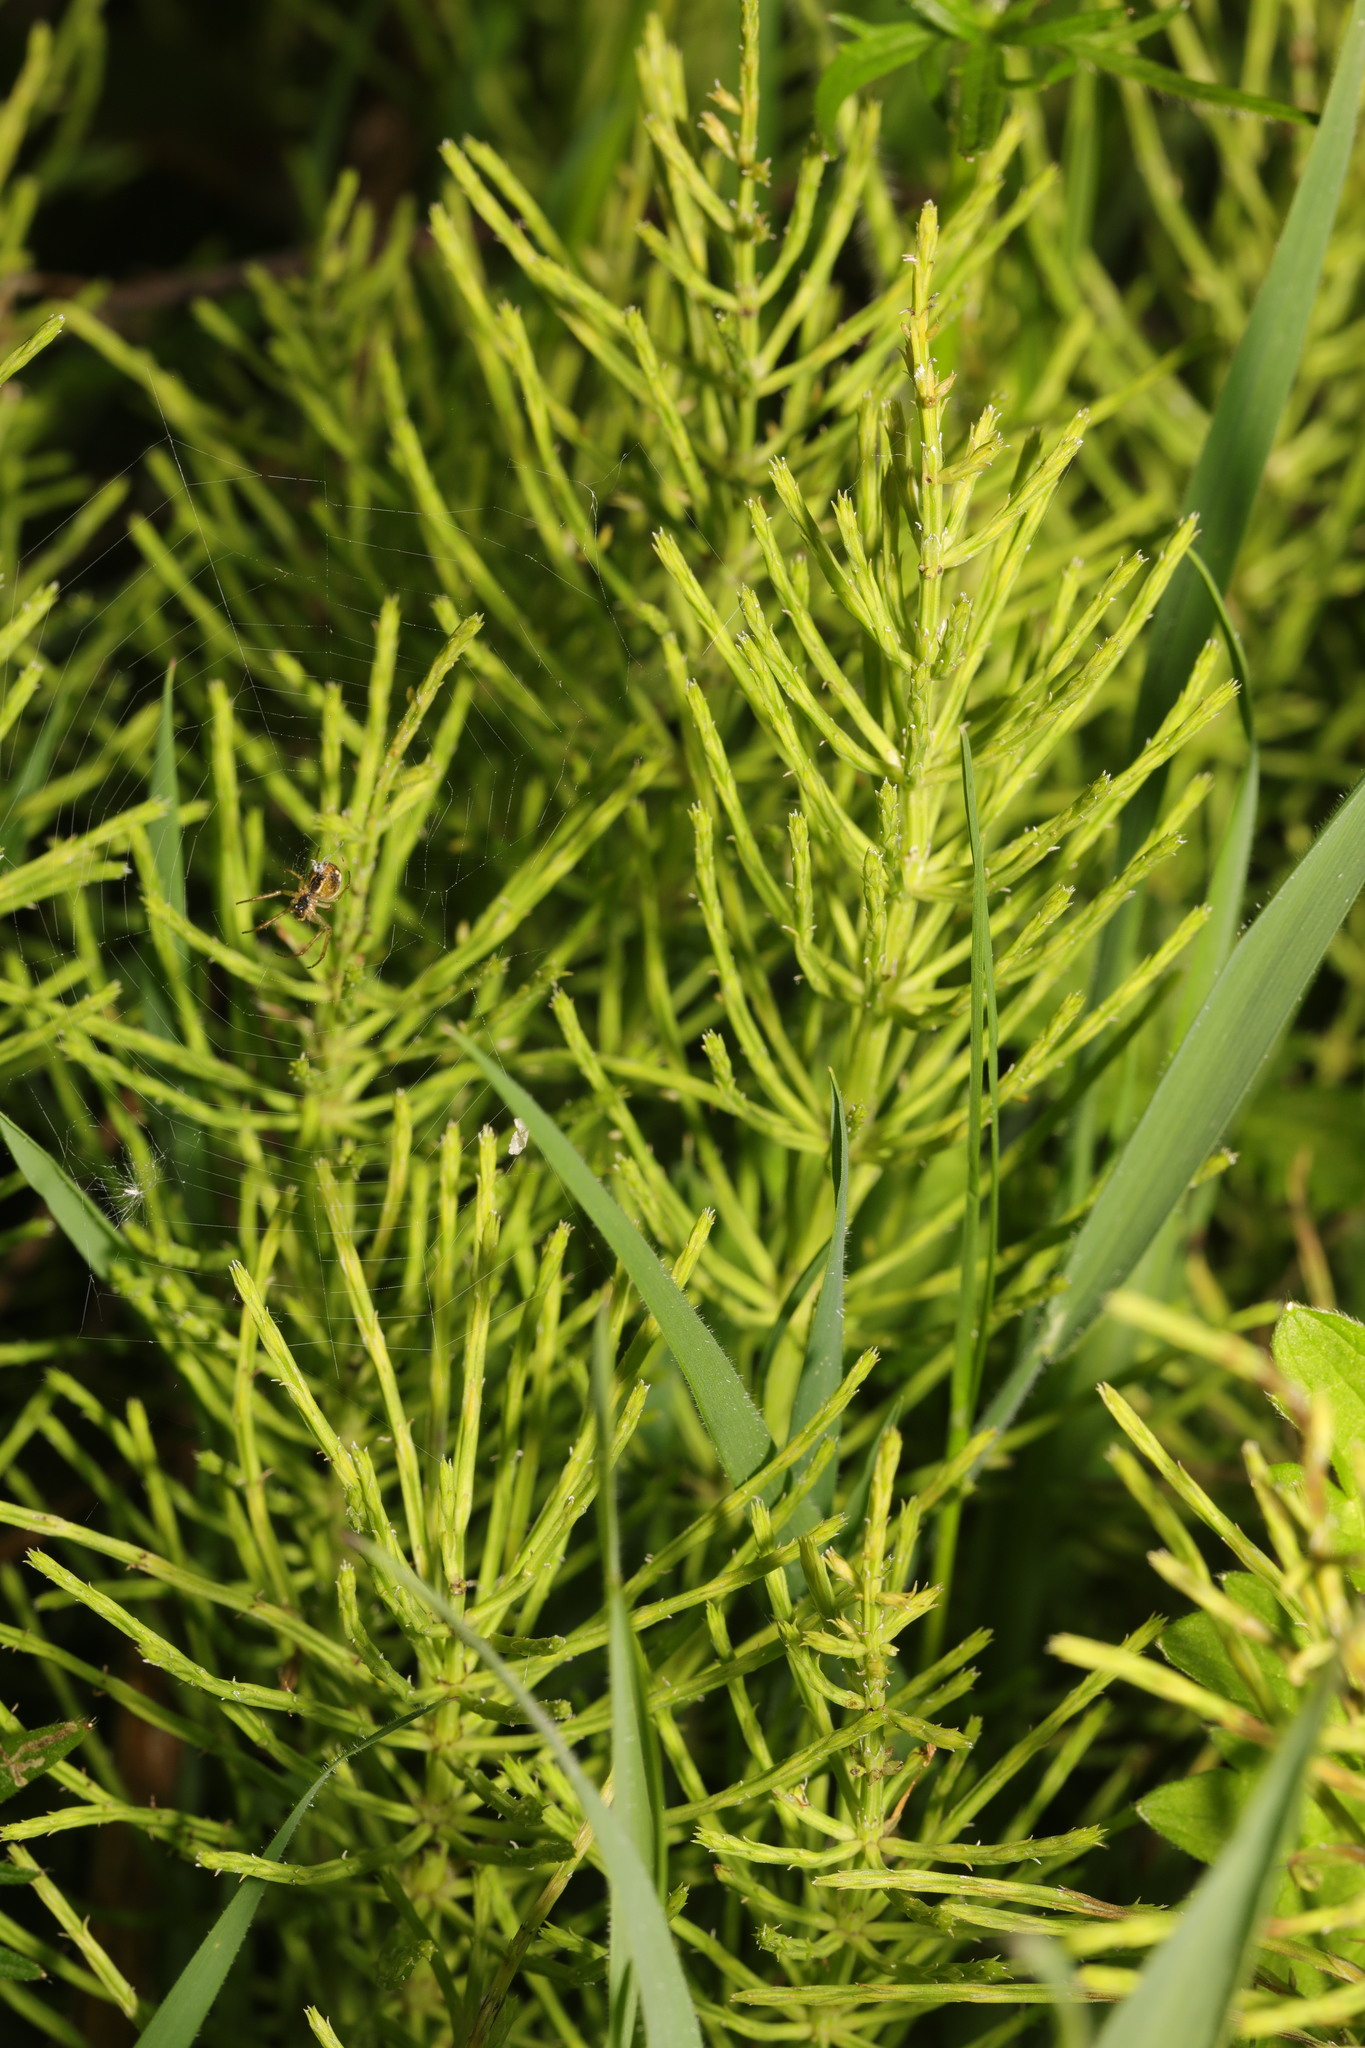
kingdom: Plantae
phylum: Tracheophyta
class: Polypodiopsida
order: Equisetales
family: Equisetaceae
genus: Equisetum
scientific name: Equisetum arvense
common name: Field horsetail
